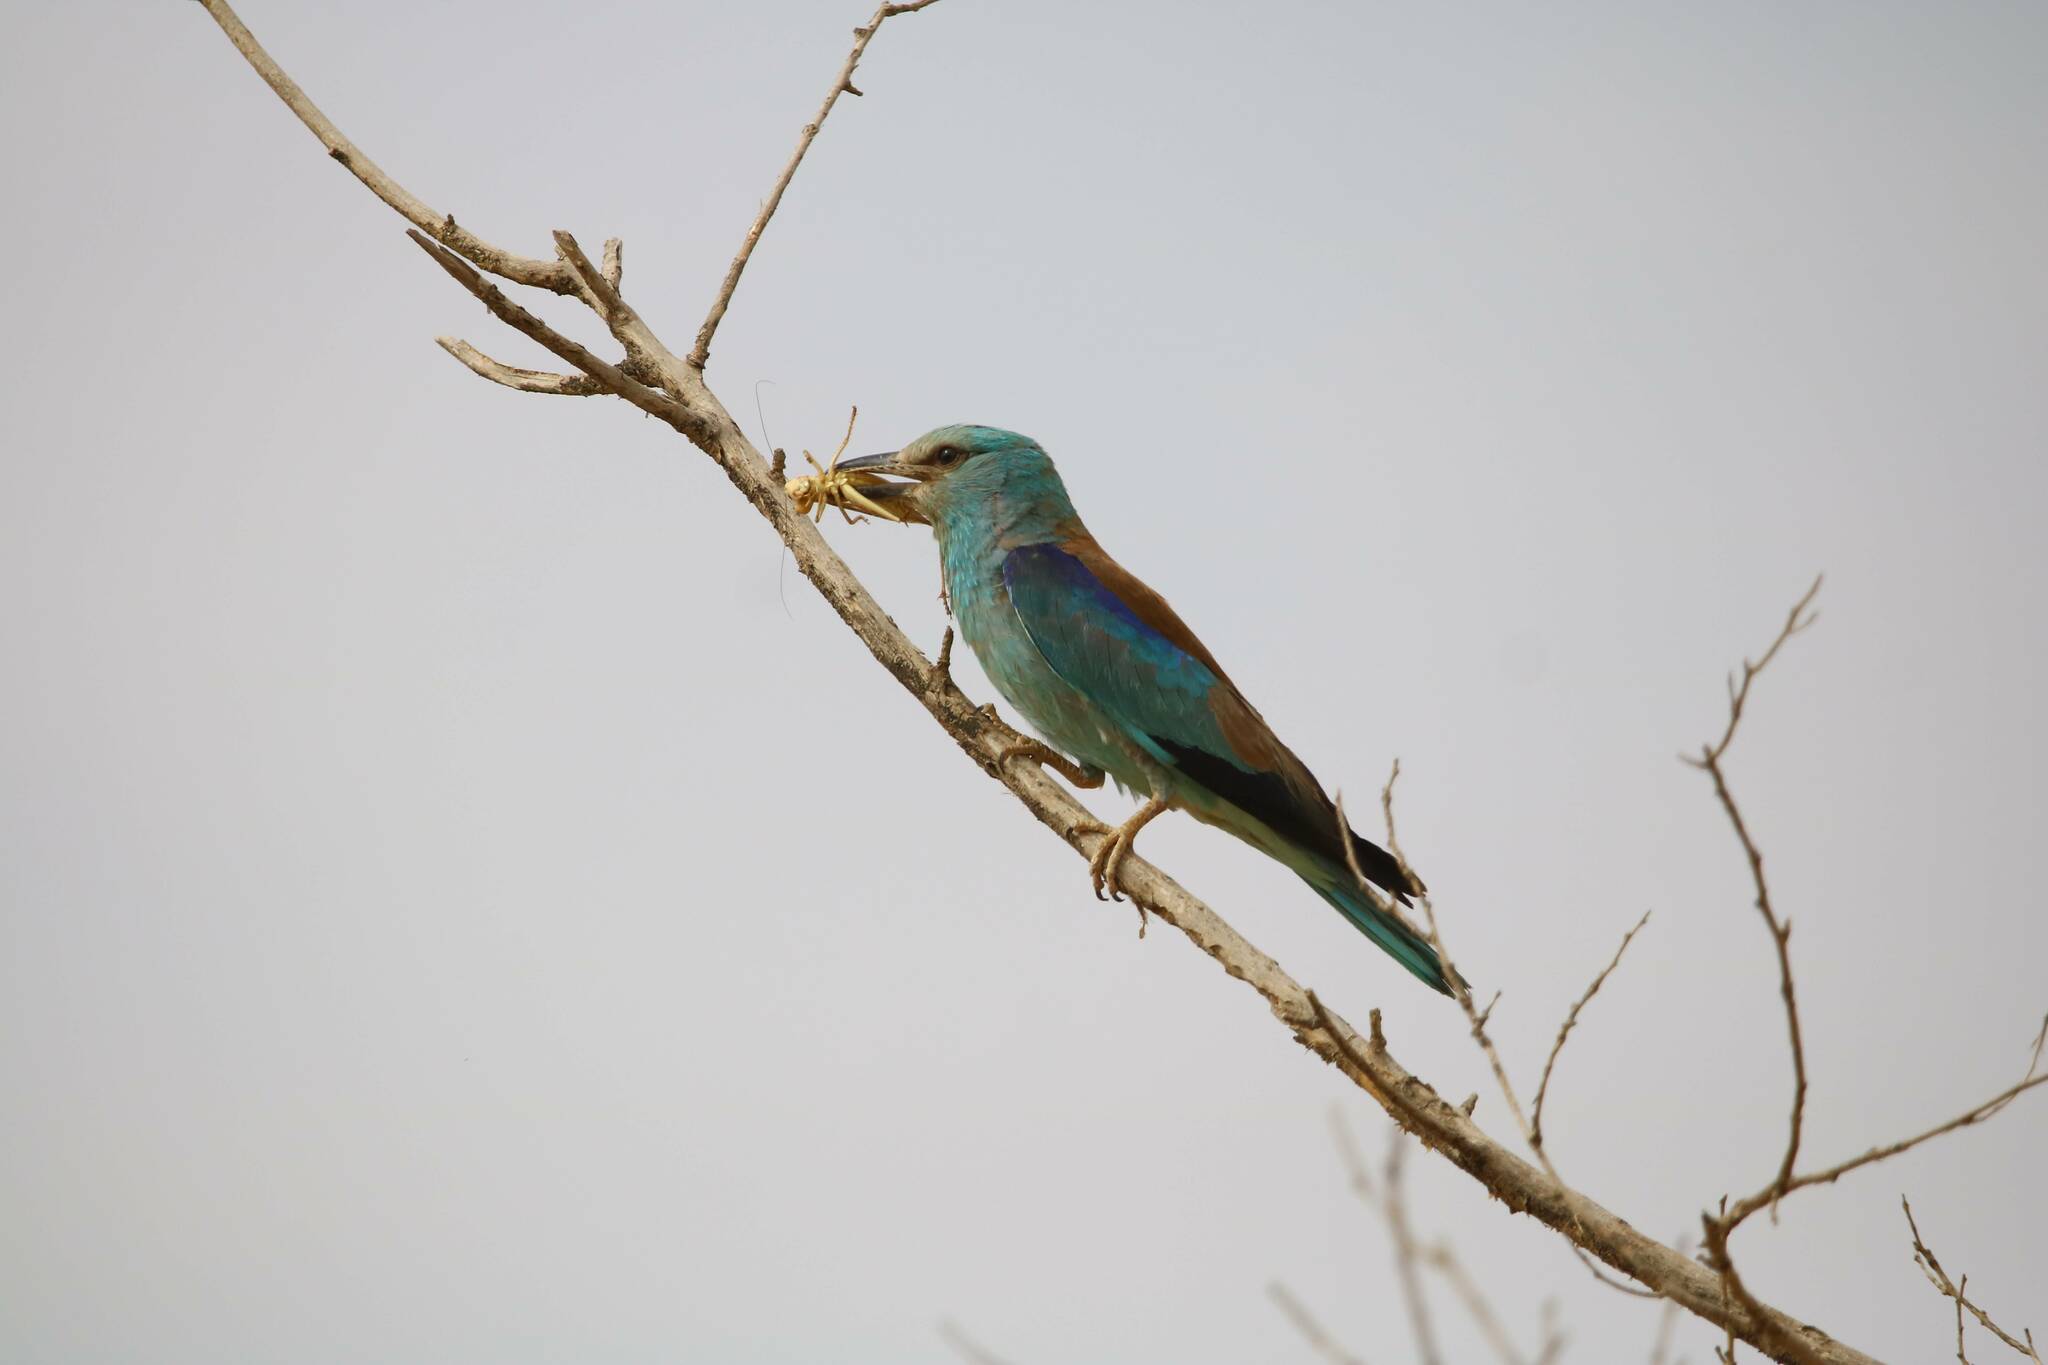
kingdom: Animalia
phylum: Chordata
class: Aves
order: Coraciiformes
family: Coraciidae
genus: Coracias
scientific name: Coracias garrulus
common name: European roller
